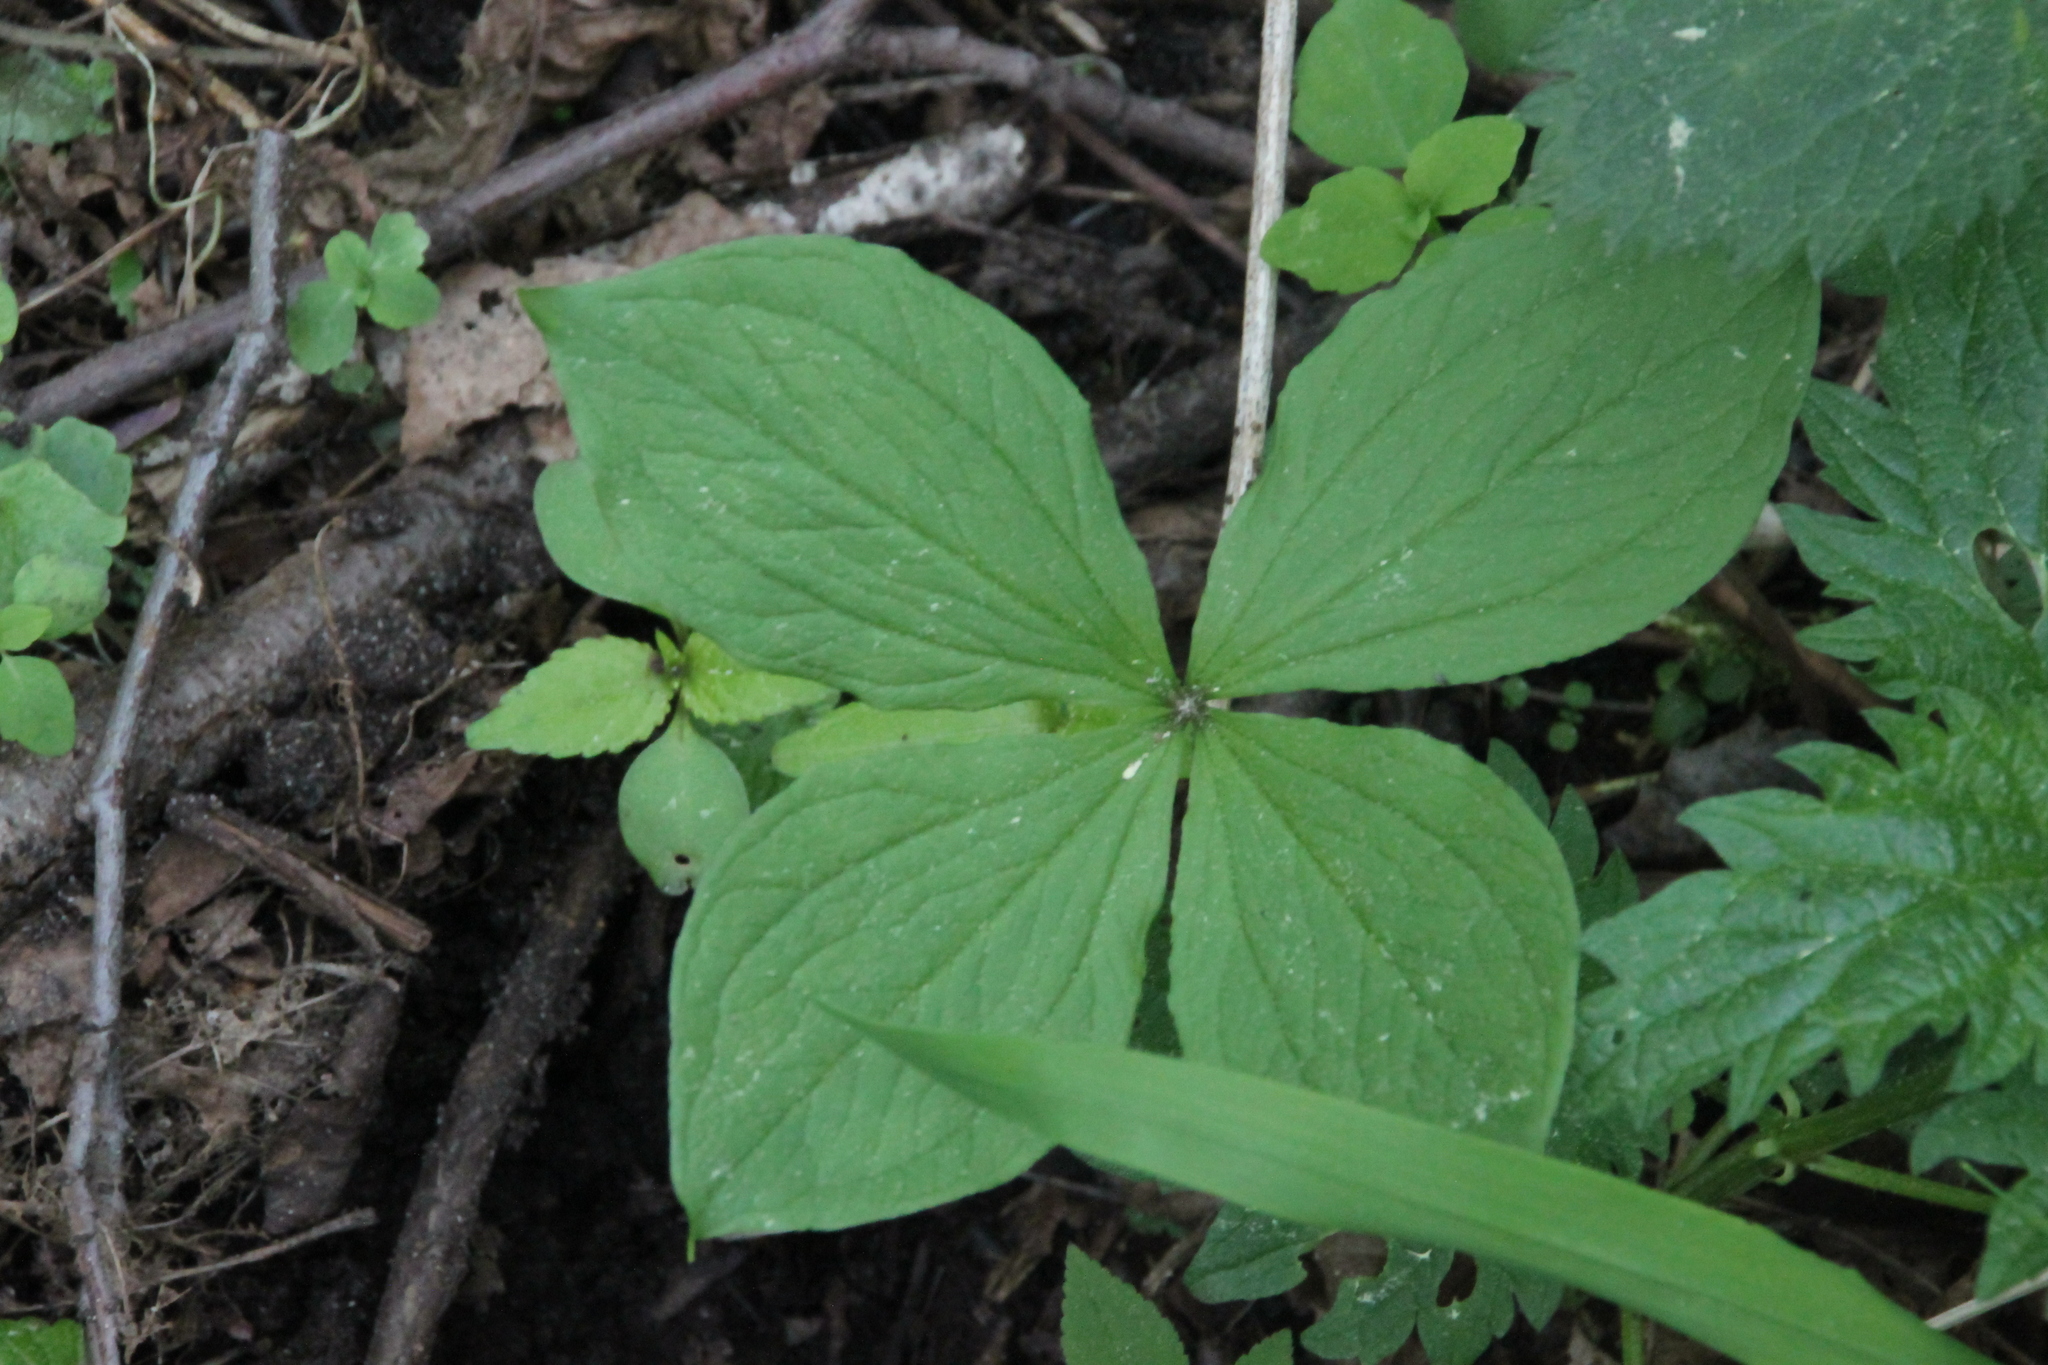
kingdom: Plantae
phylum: Tracheophyta
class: Liliopsida
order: Liliales
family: Melanthiaceae
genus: Paris
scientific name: Paris quadrifolia
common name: Herb-paris
